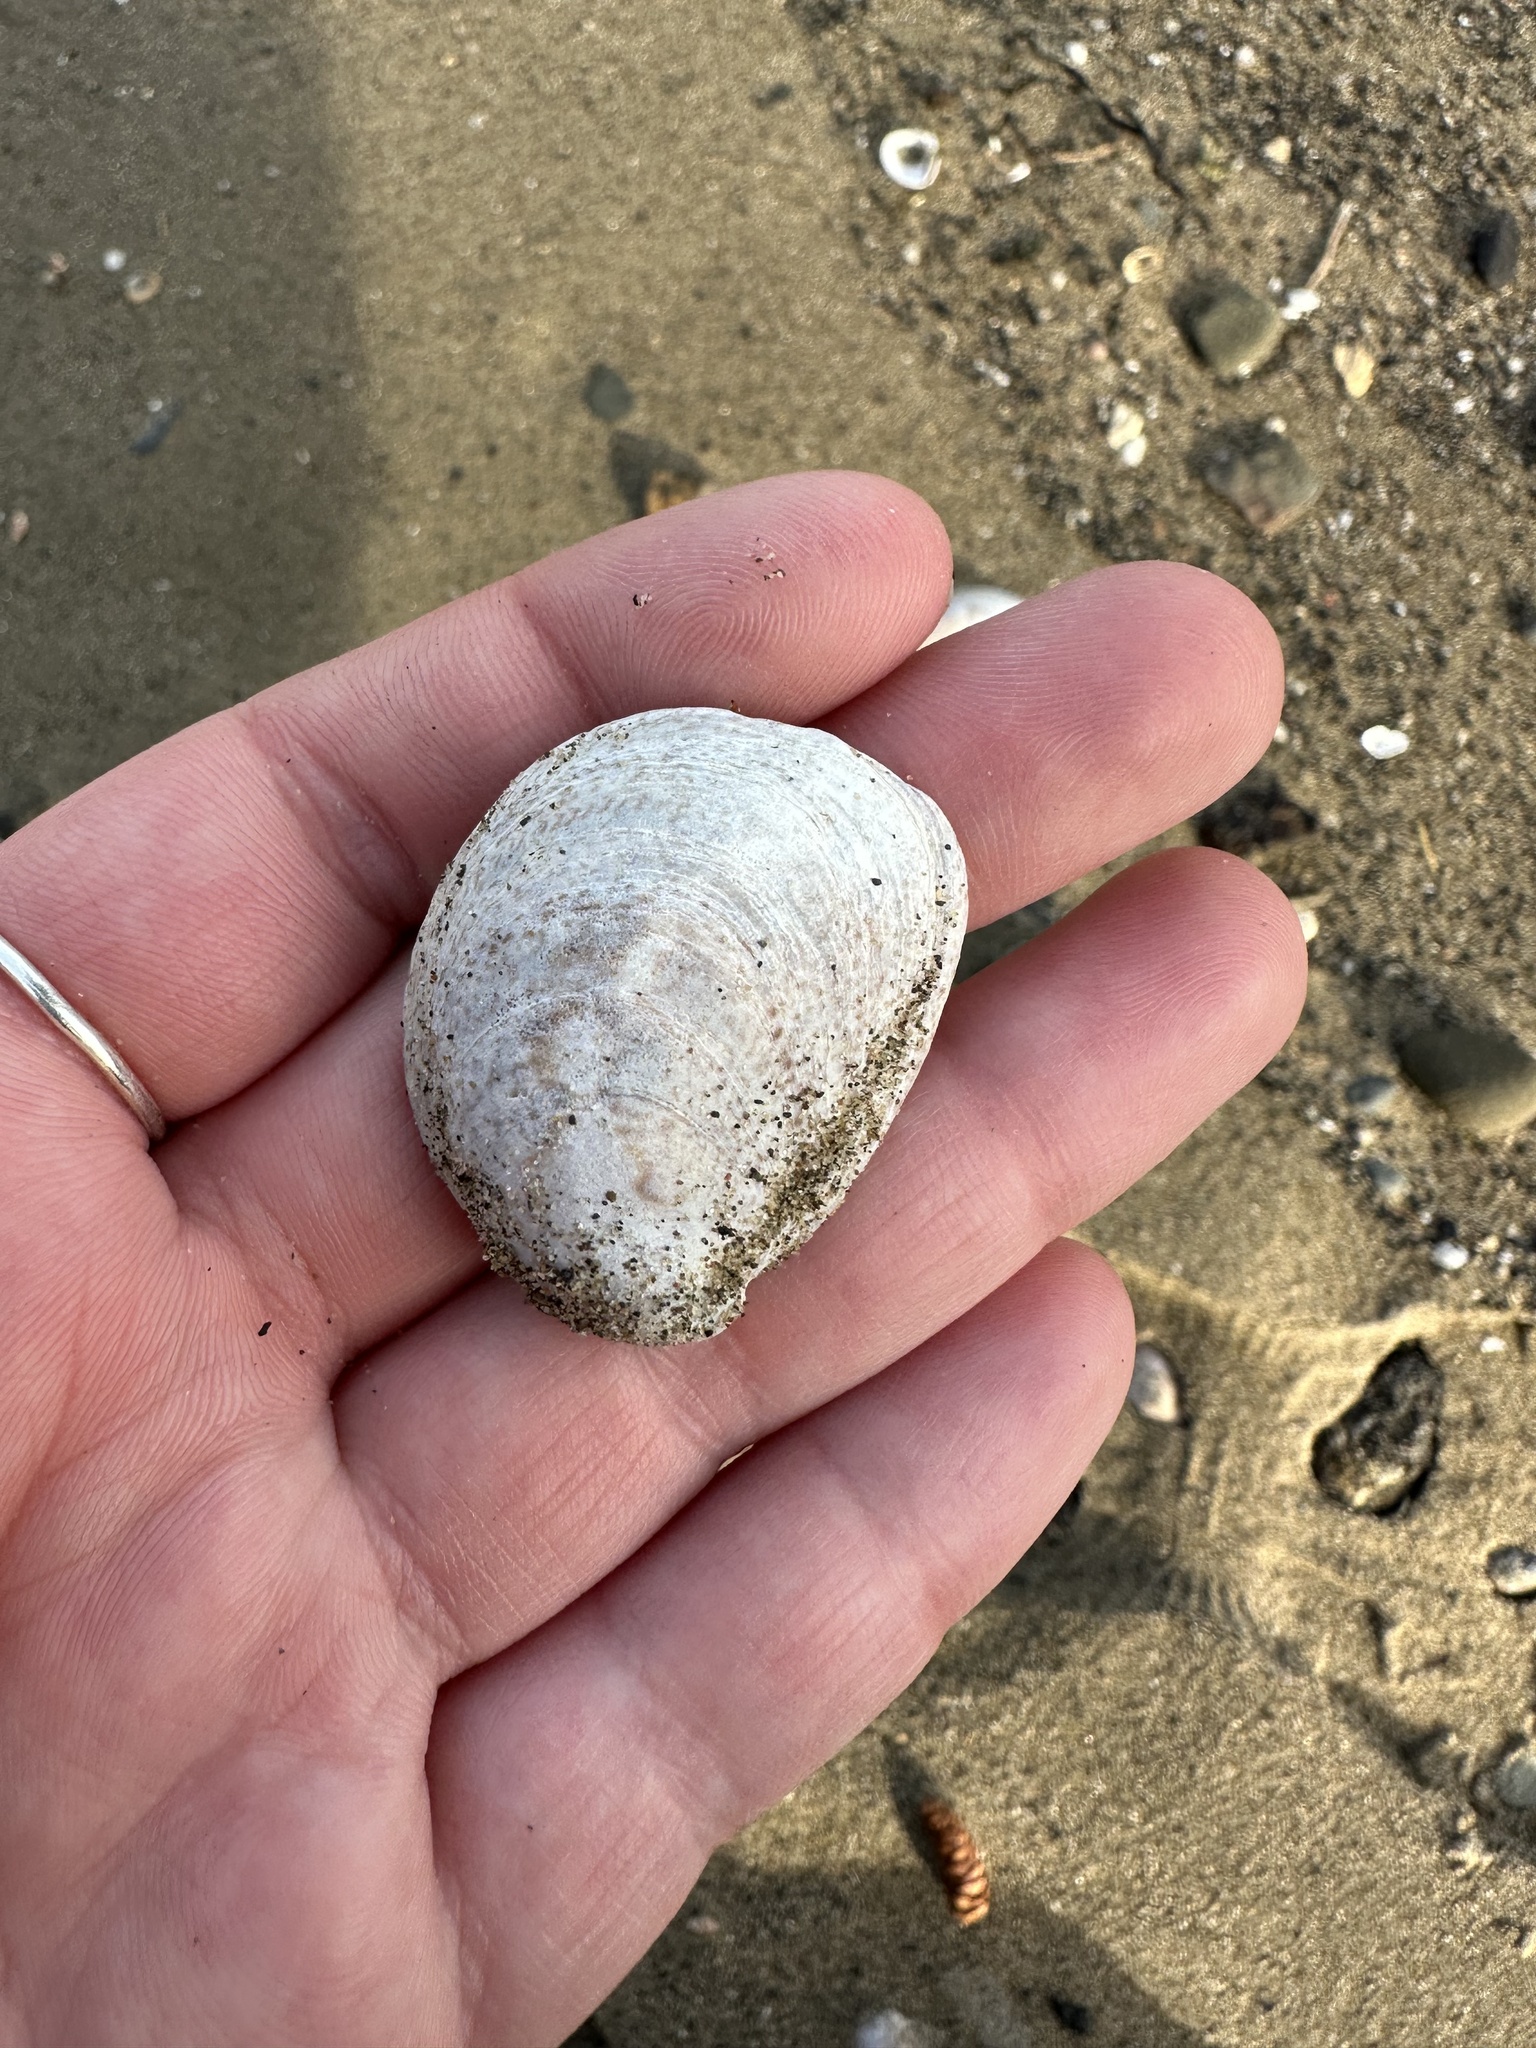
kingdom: Animalia
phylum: Mollusca
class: Gastropoda
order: Littorinimorpha
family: Calyptraeidae
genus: Crepidula
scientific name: Crepidula fornicata
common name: Slipper limpet
